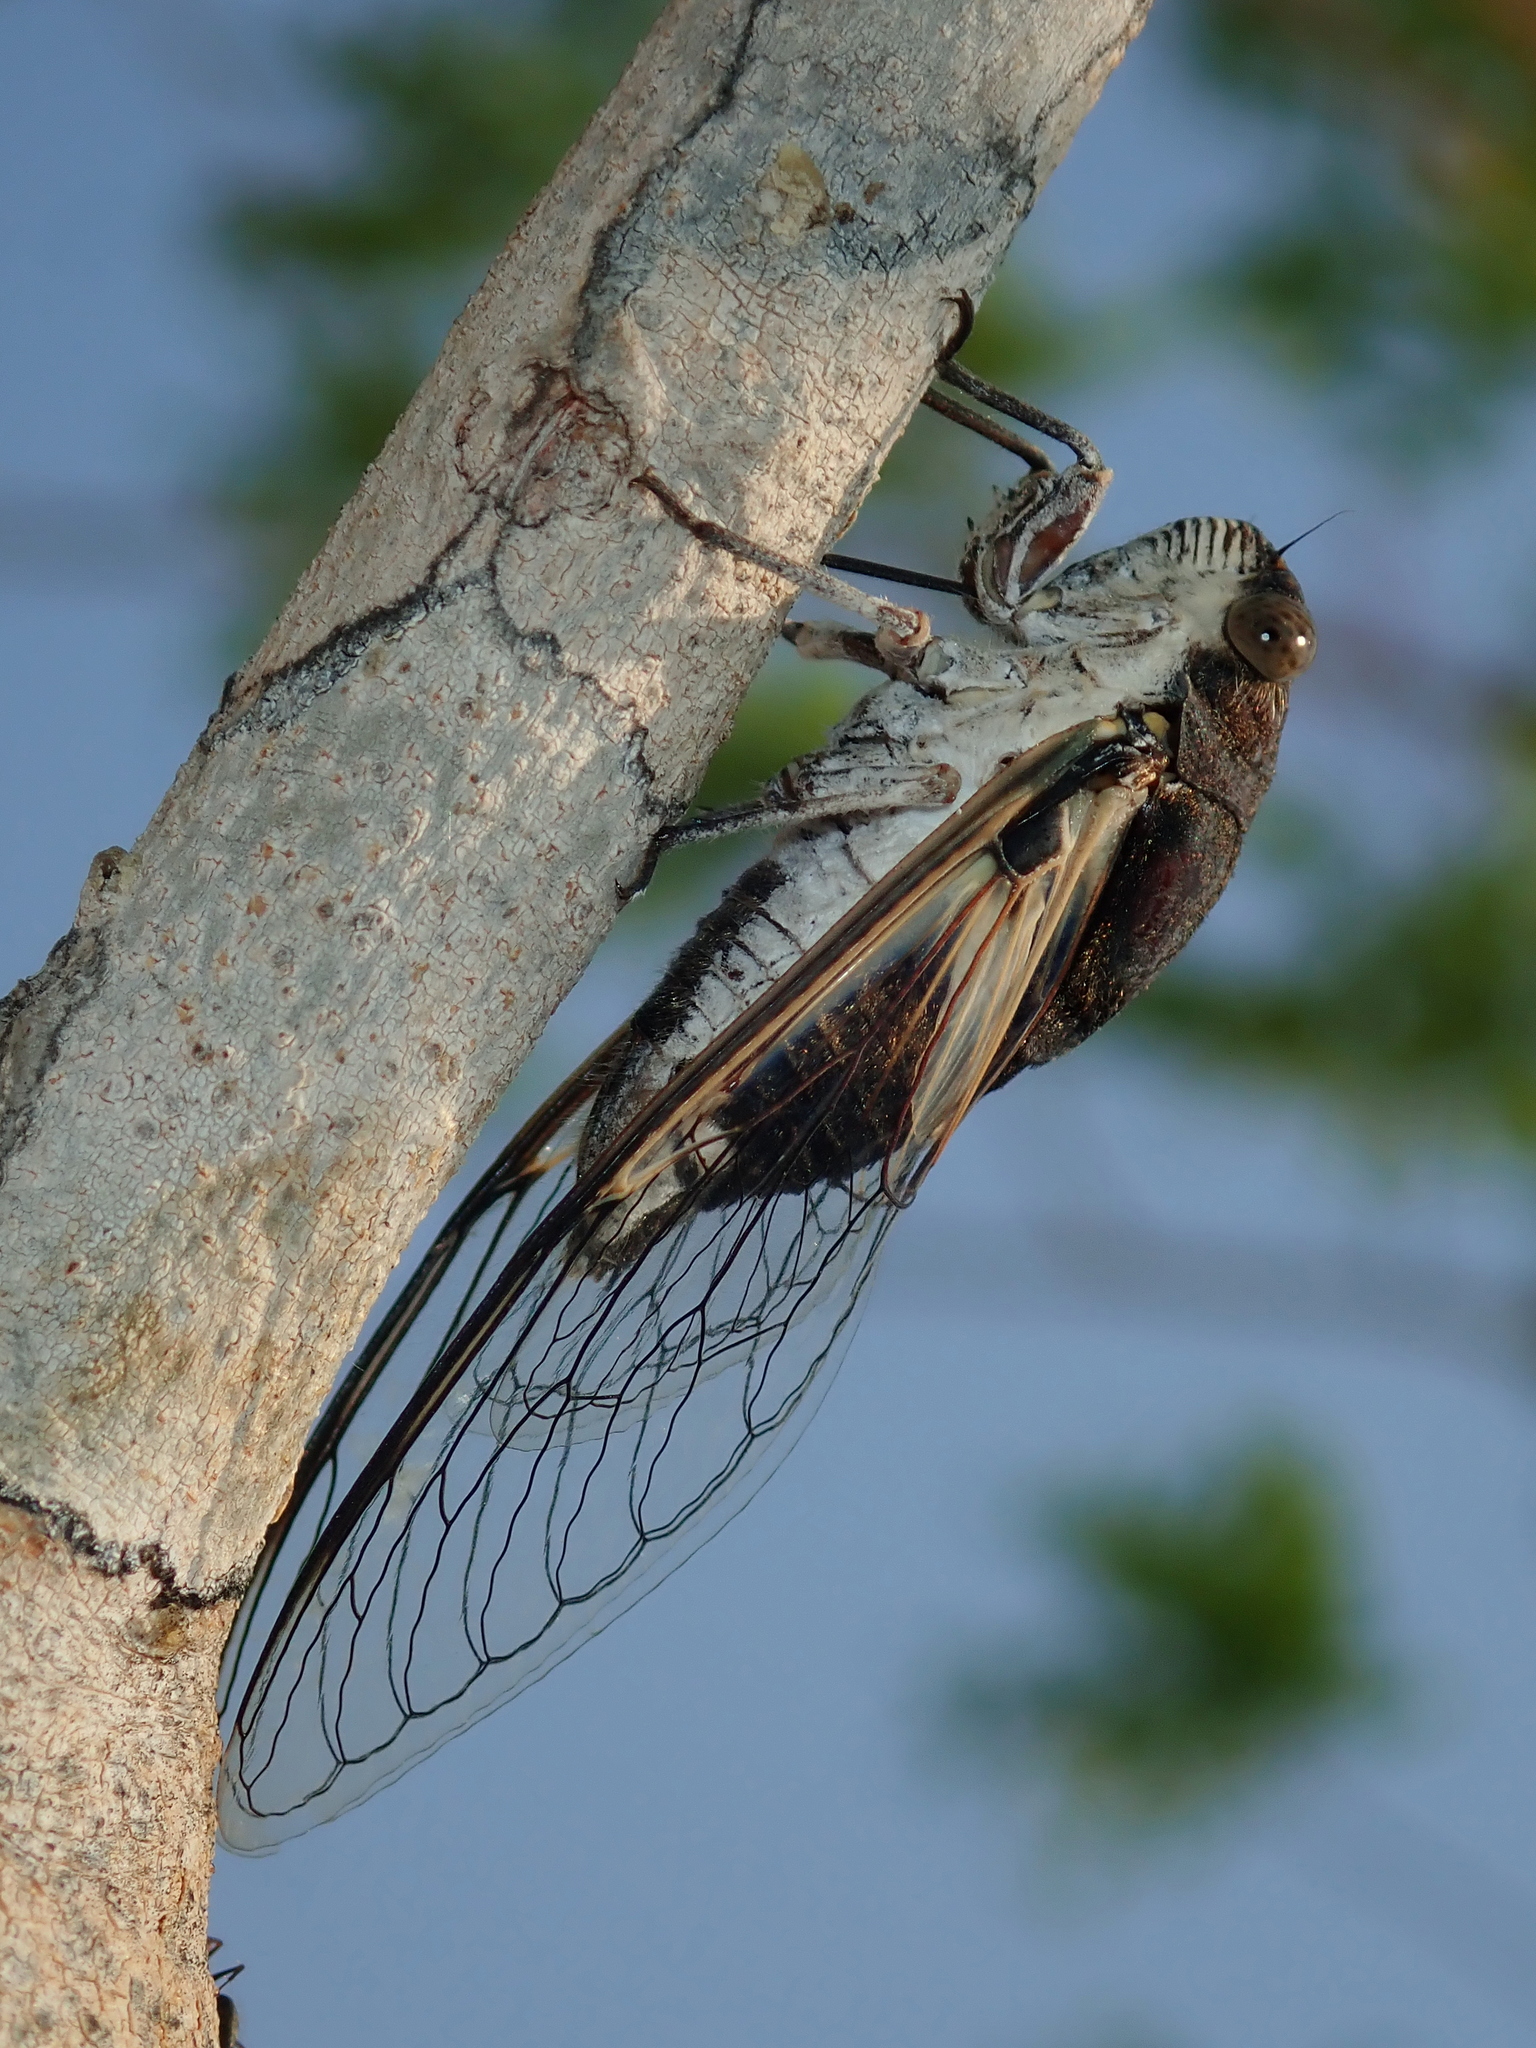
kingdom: Animalia
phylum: Arthropoda
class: Insecta
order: Hemiptera
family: Cicadidae
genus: Ariasa
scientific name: Ariasa albiplica
